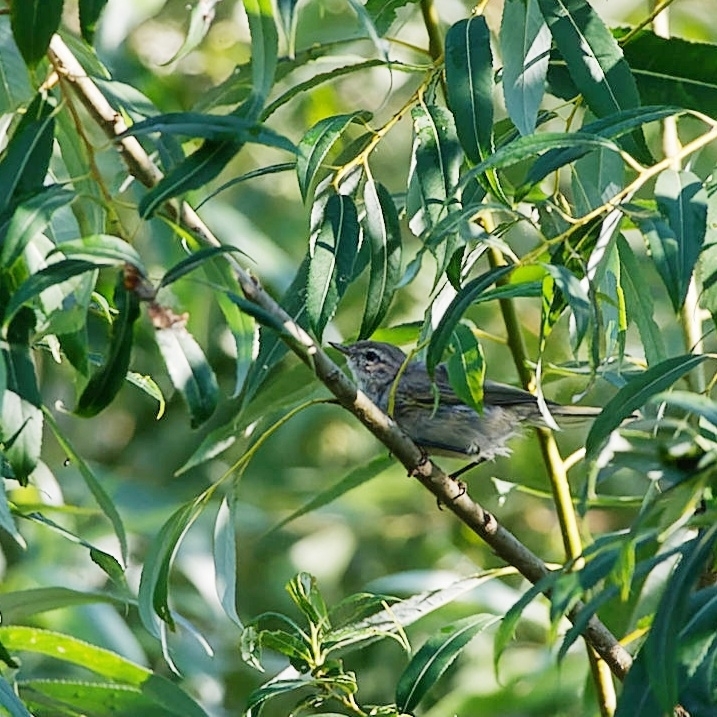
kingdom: Animalia
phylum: Chordata
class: Aves
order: Passeriformes
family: Phylloscopidae
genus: Phylloscopus
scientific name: Phylloscopus collybita
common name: Common chiffchaff
